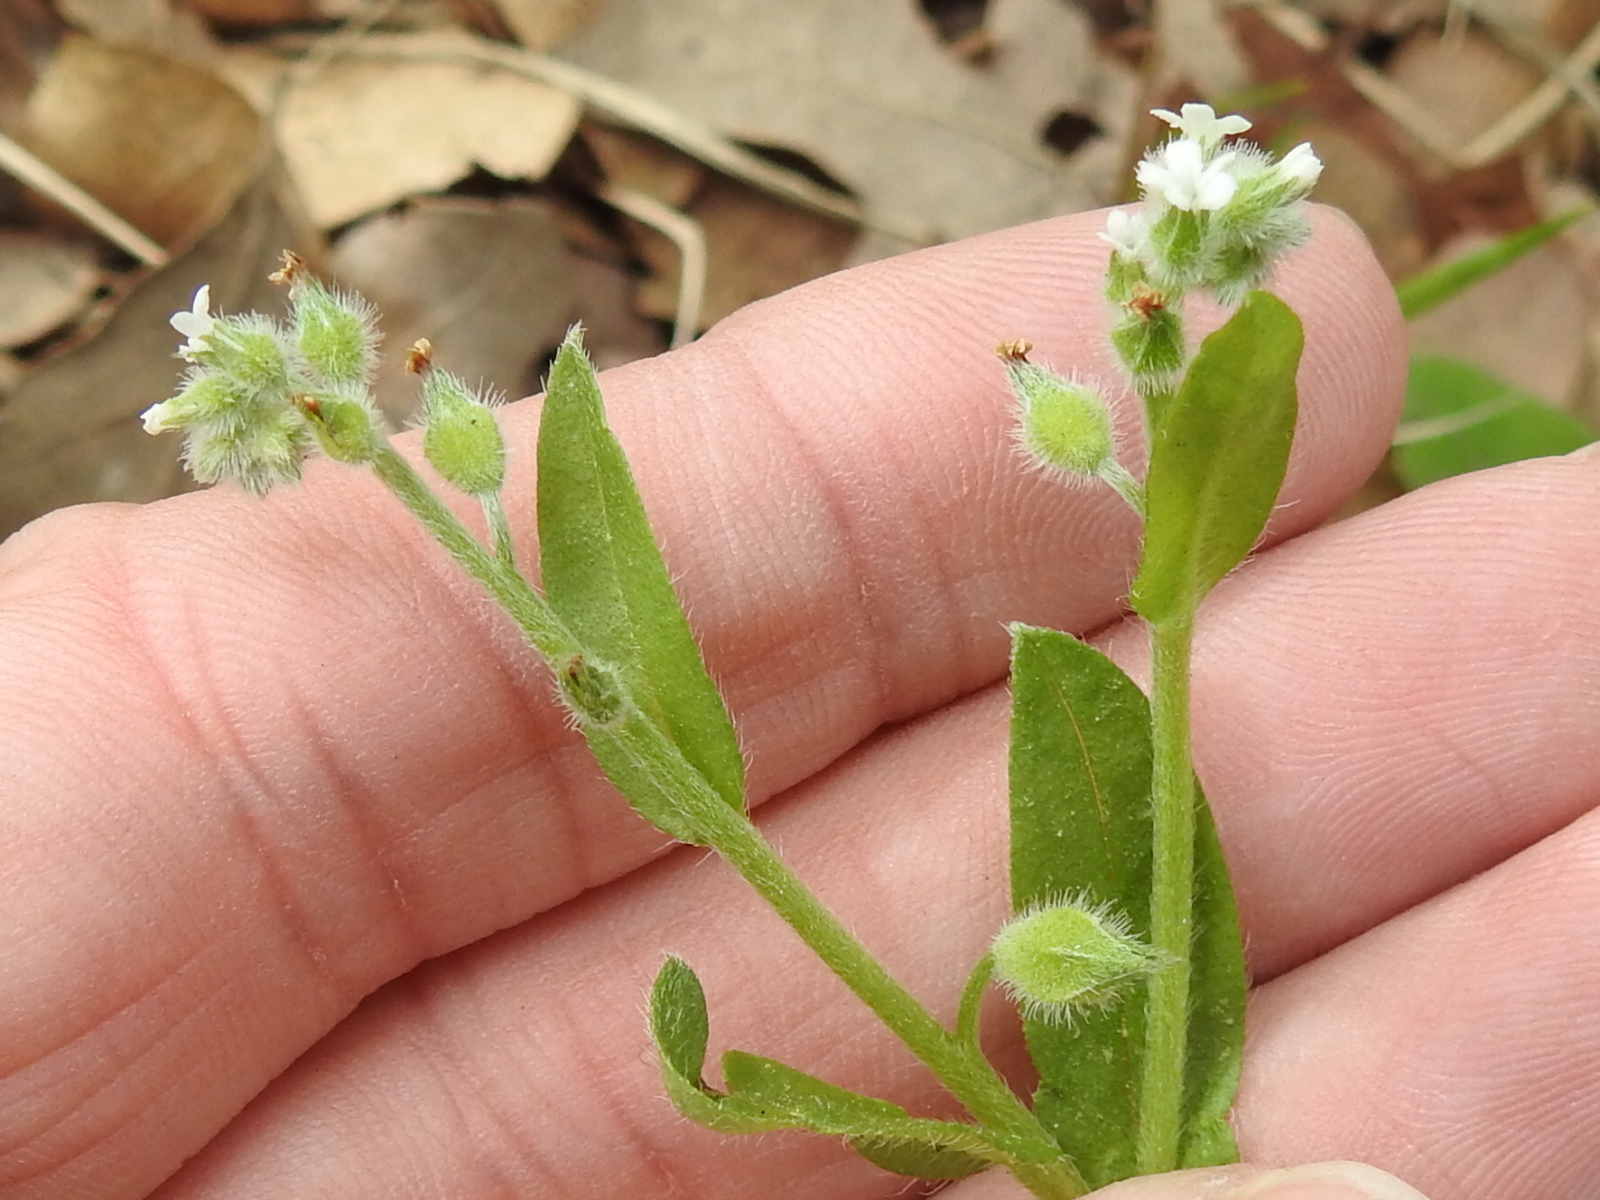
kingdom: Plantae
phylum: Tracheophyta
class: Magnoliopsida
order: Boraginales
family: Boraginaceae
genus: Myosotis
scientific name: Myosotis macrosperma
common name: Large-seed forget-me-not
